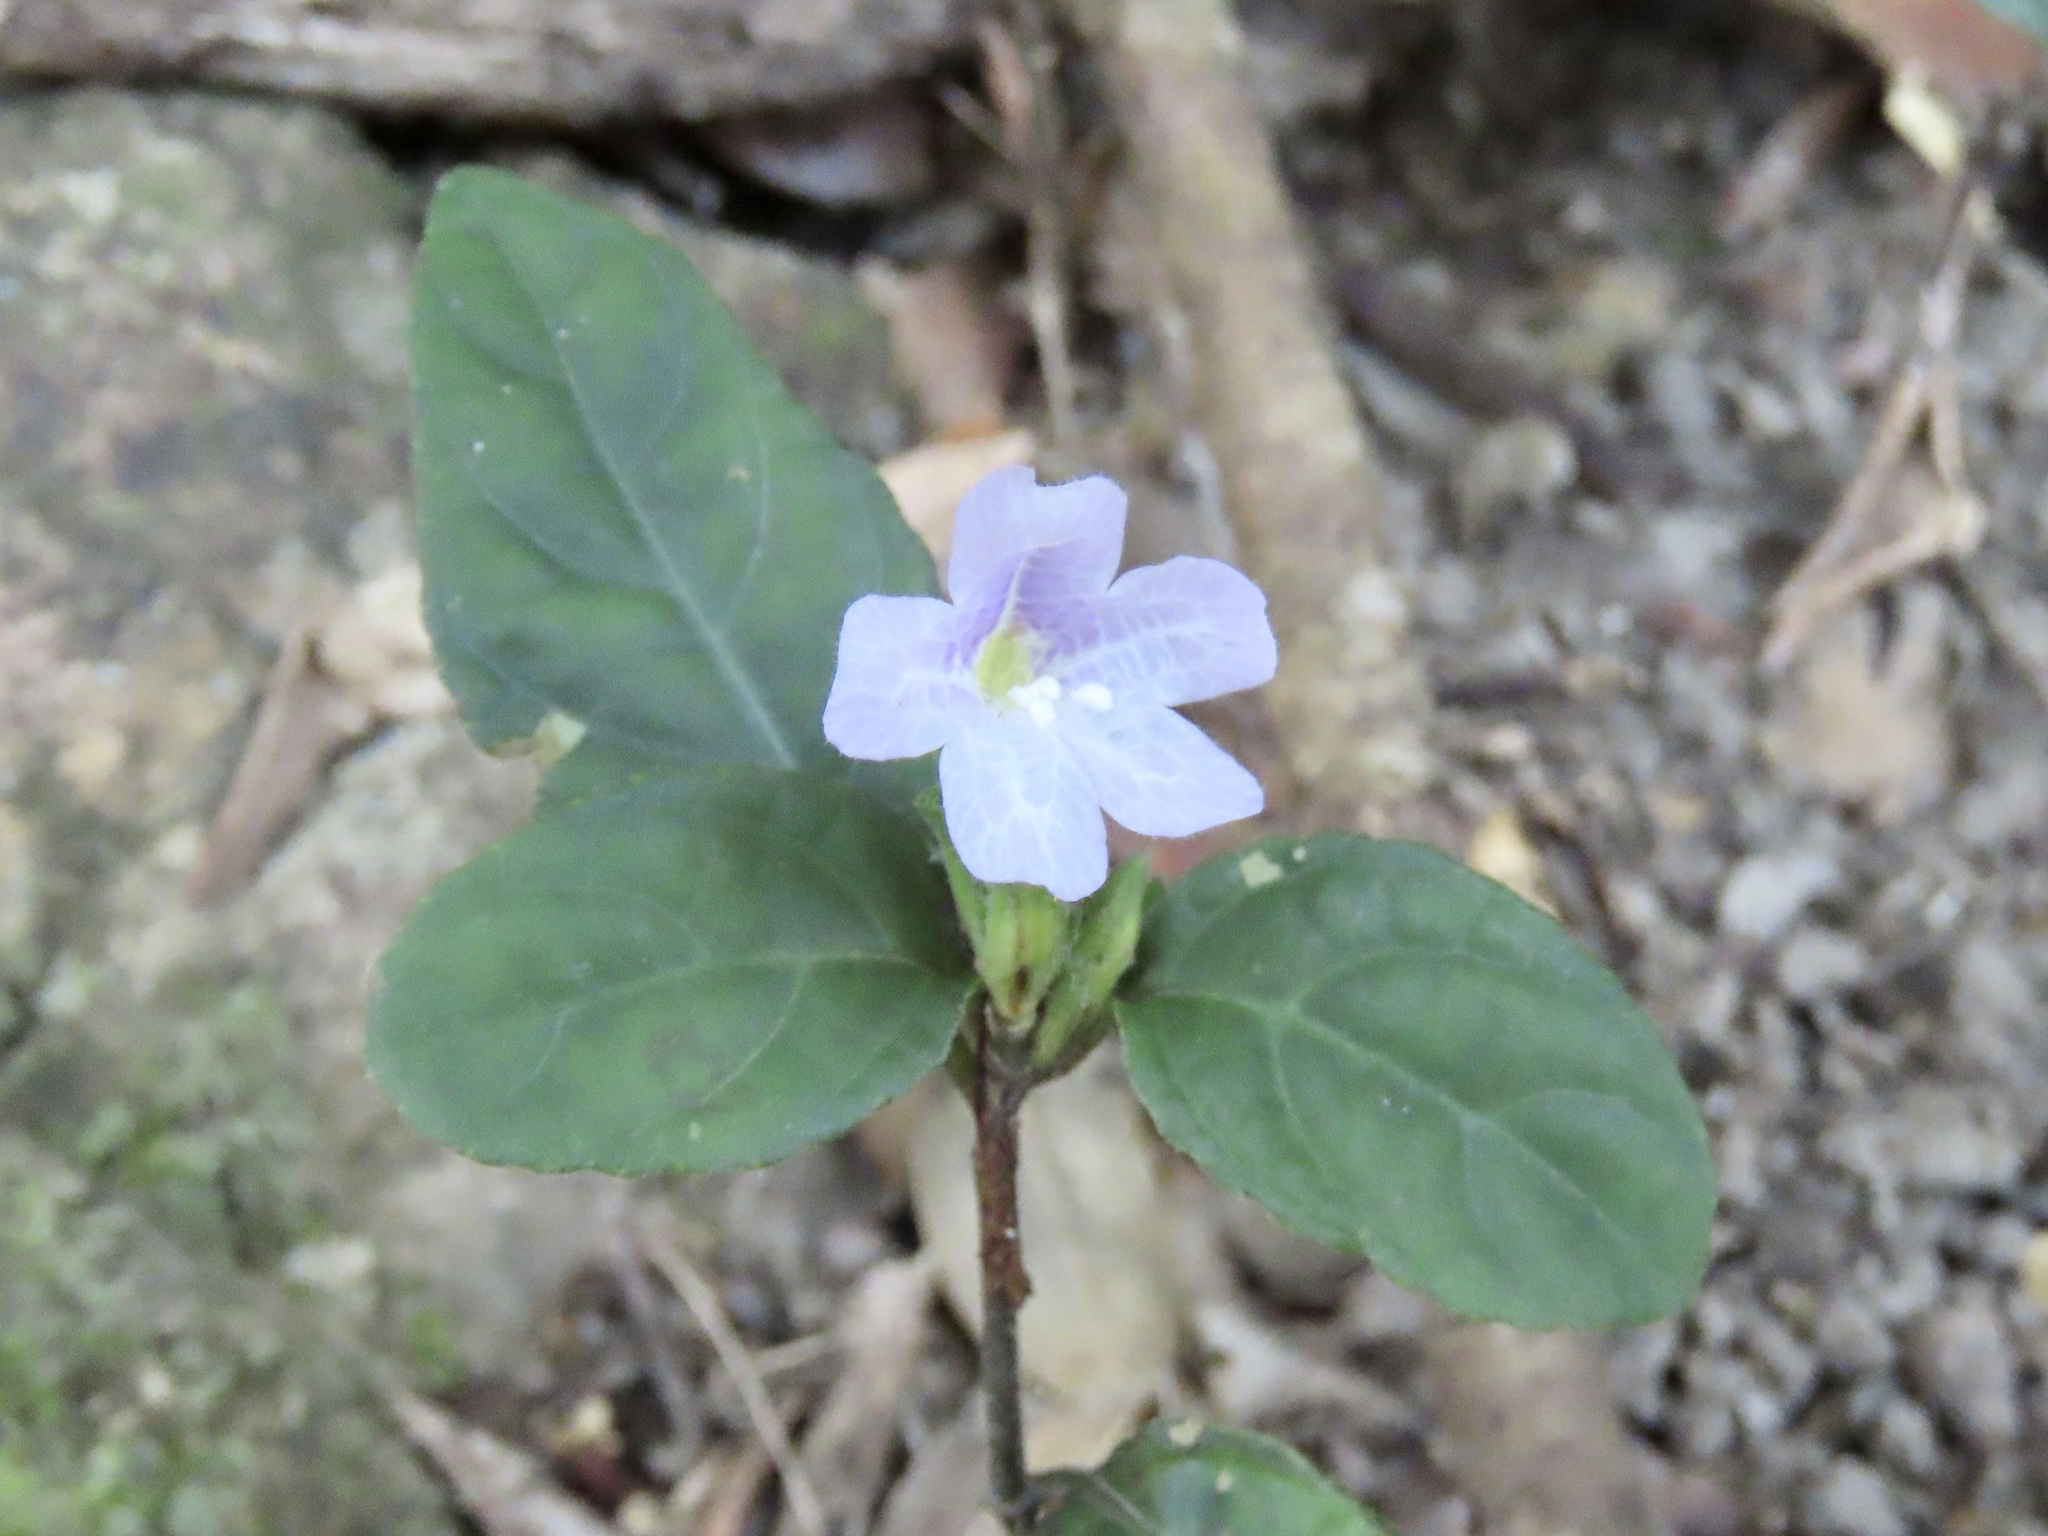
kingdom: Plantae
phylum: Tracheophyta
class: Magnoliopsida
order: Lamiales
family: Acanthaceae
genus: Strobilanthes
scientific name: Strobilanthes tetrasperma
